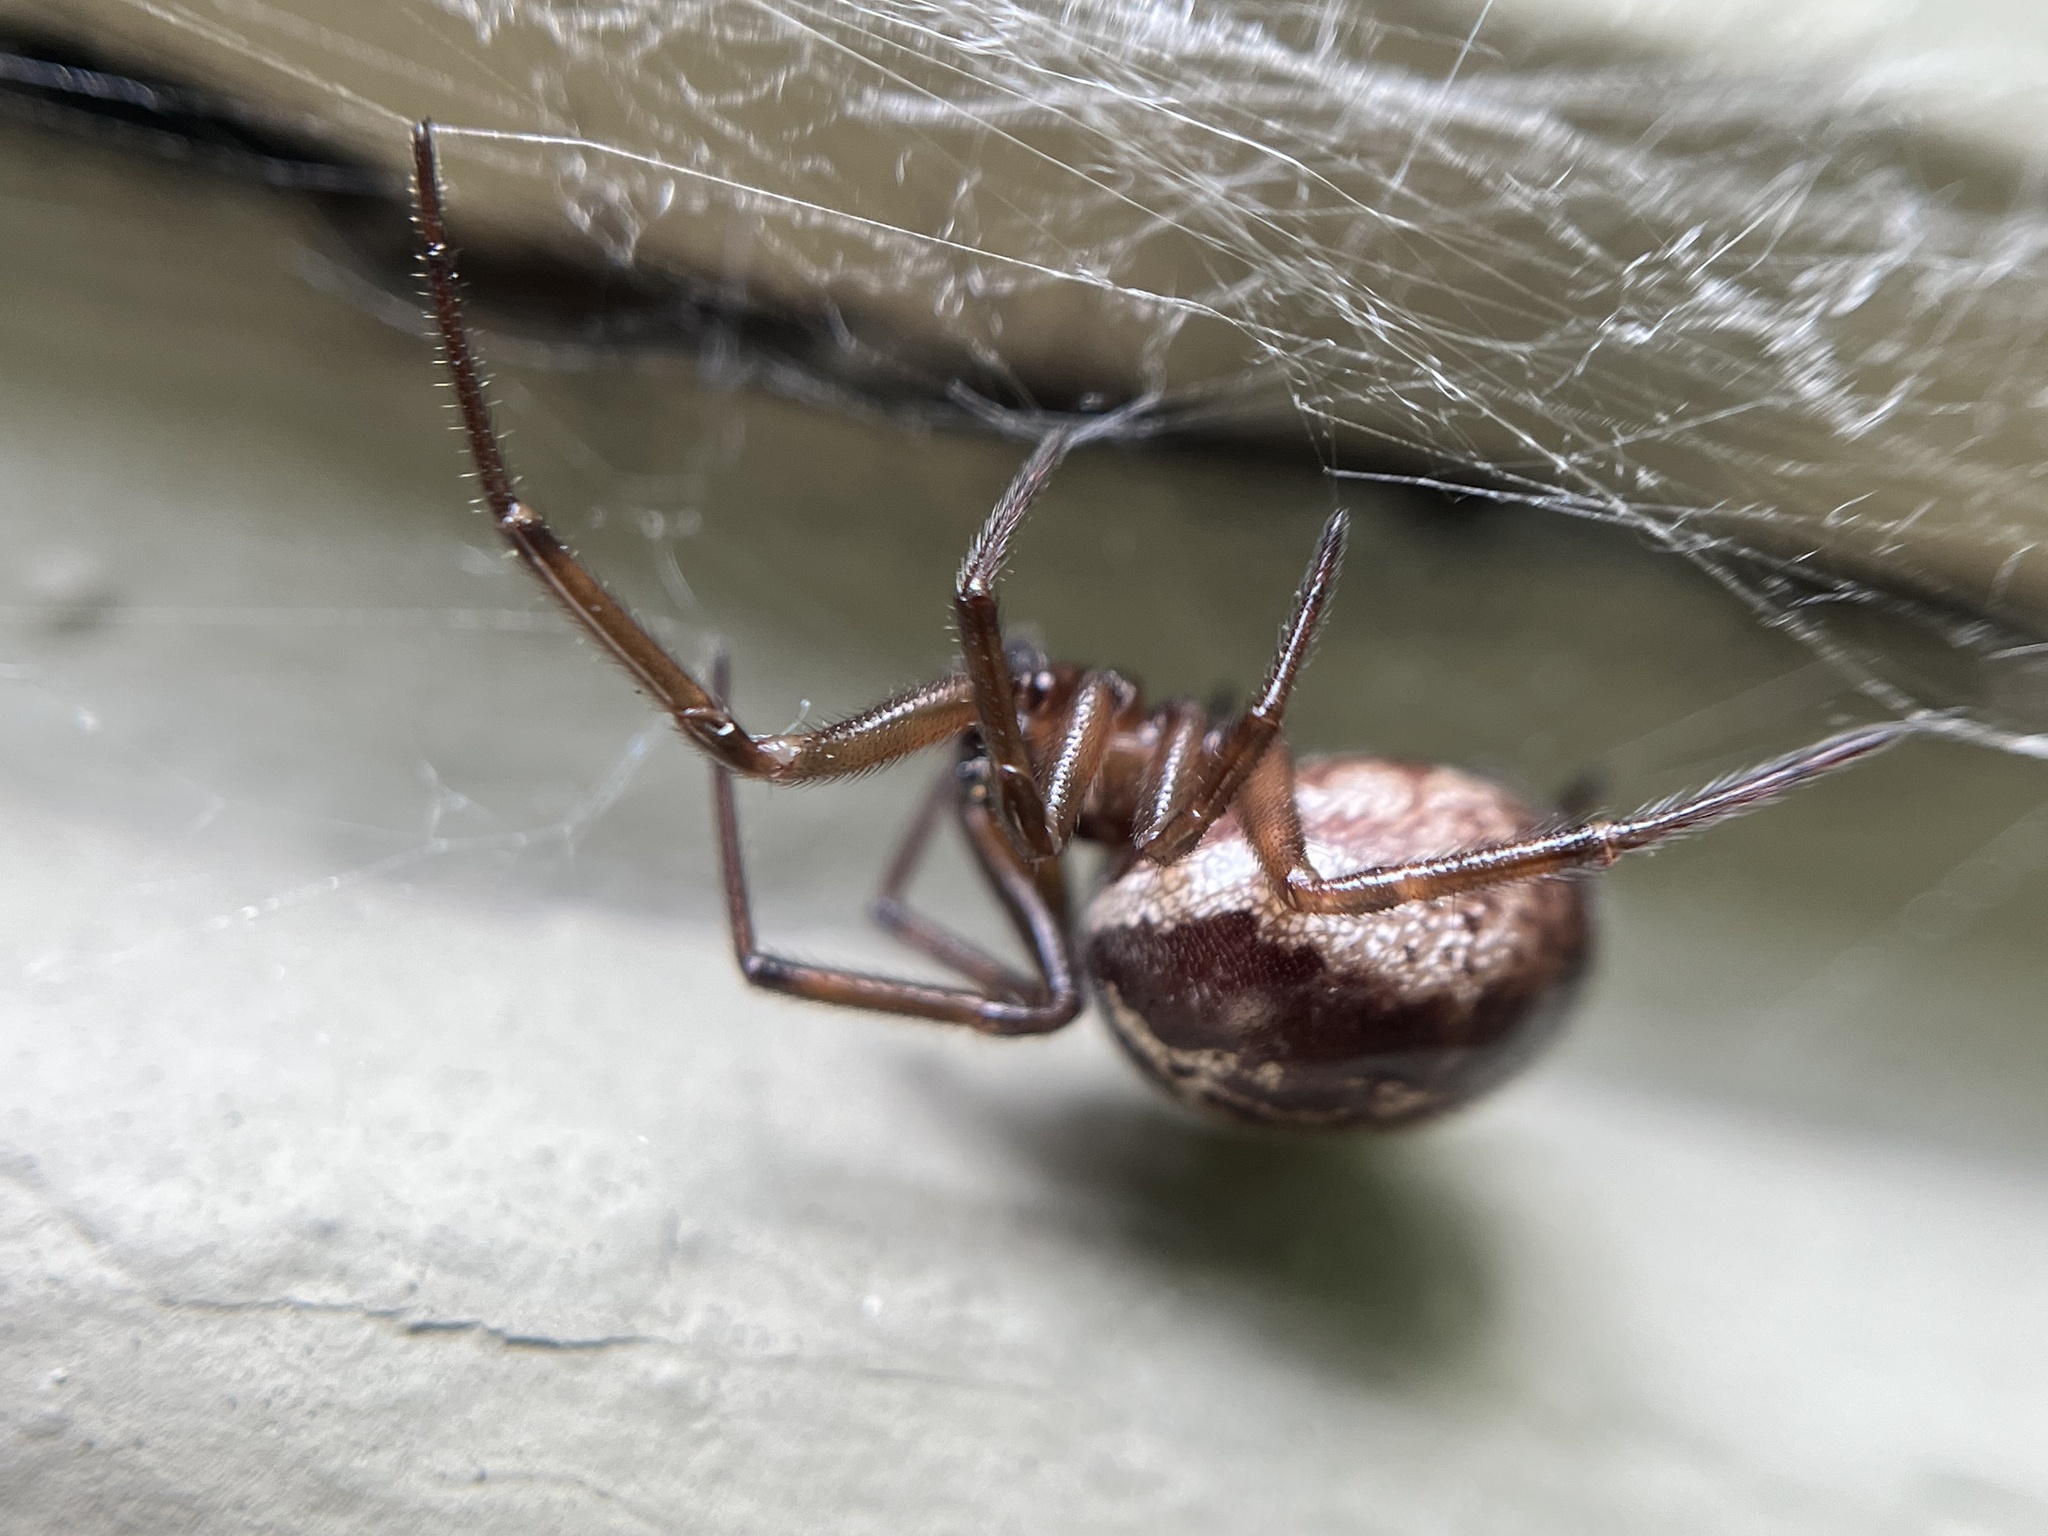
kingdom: Animalia
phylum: Arthropoda
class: Arachnida
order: Araneae
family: Theridiidae
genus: Steatoda
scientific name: Steatoda nobilis
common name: Cobweb weaver
